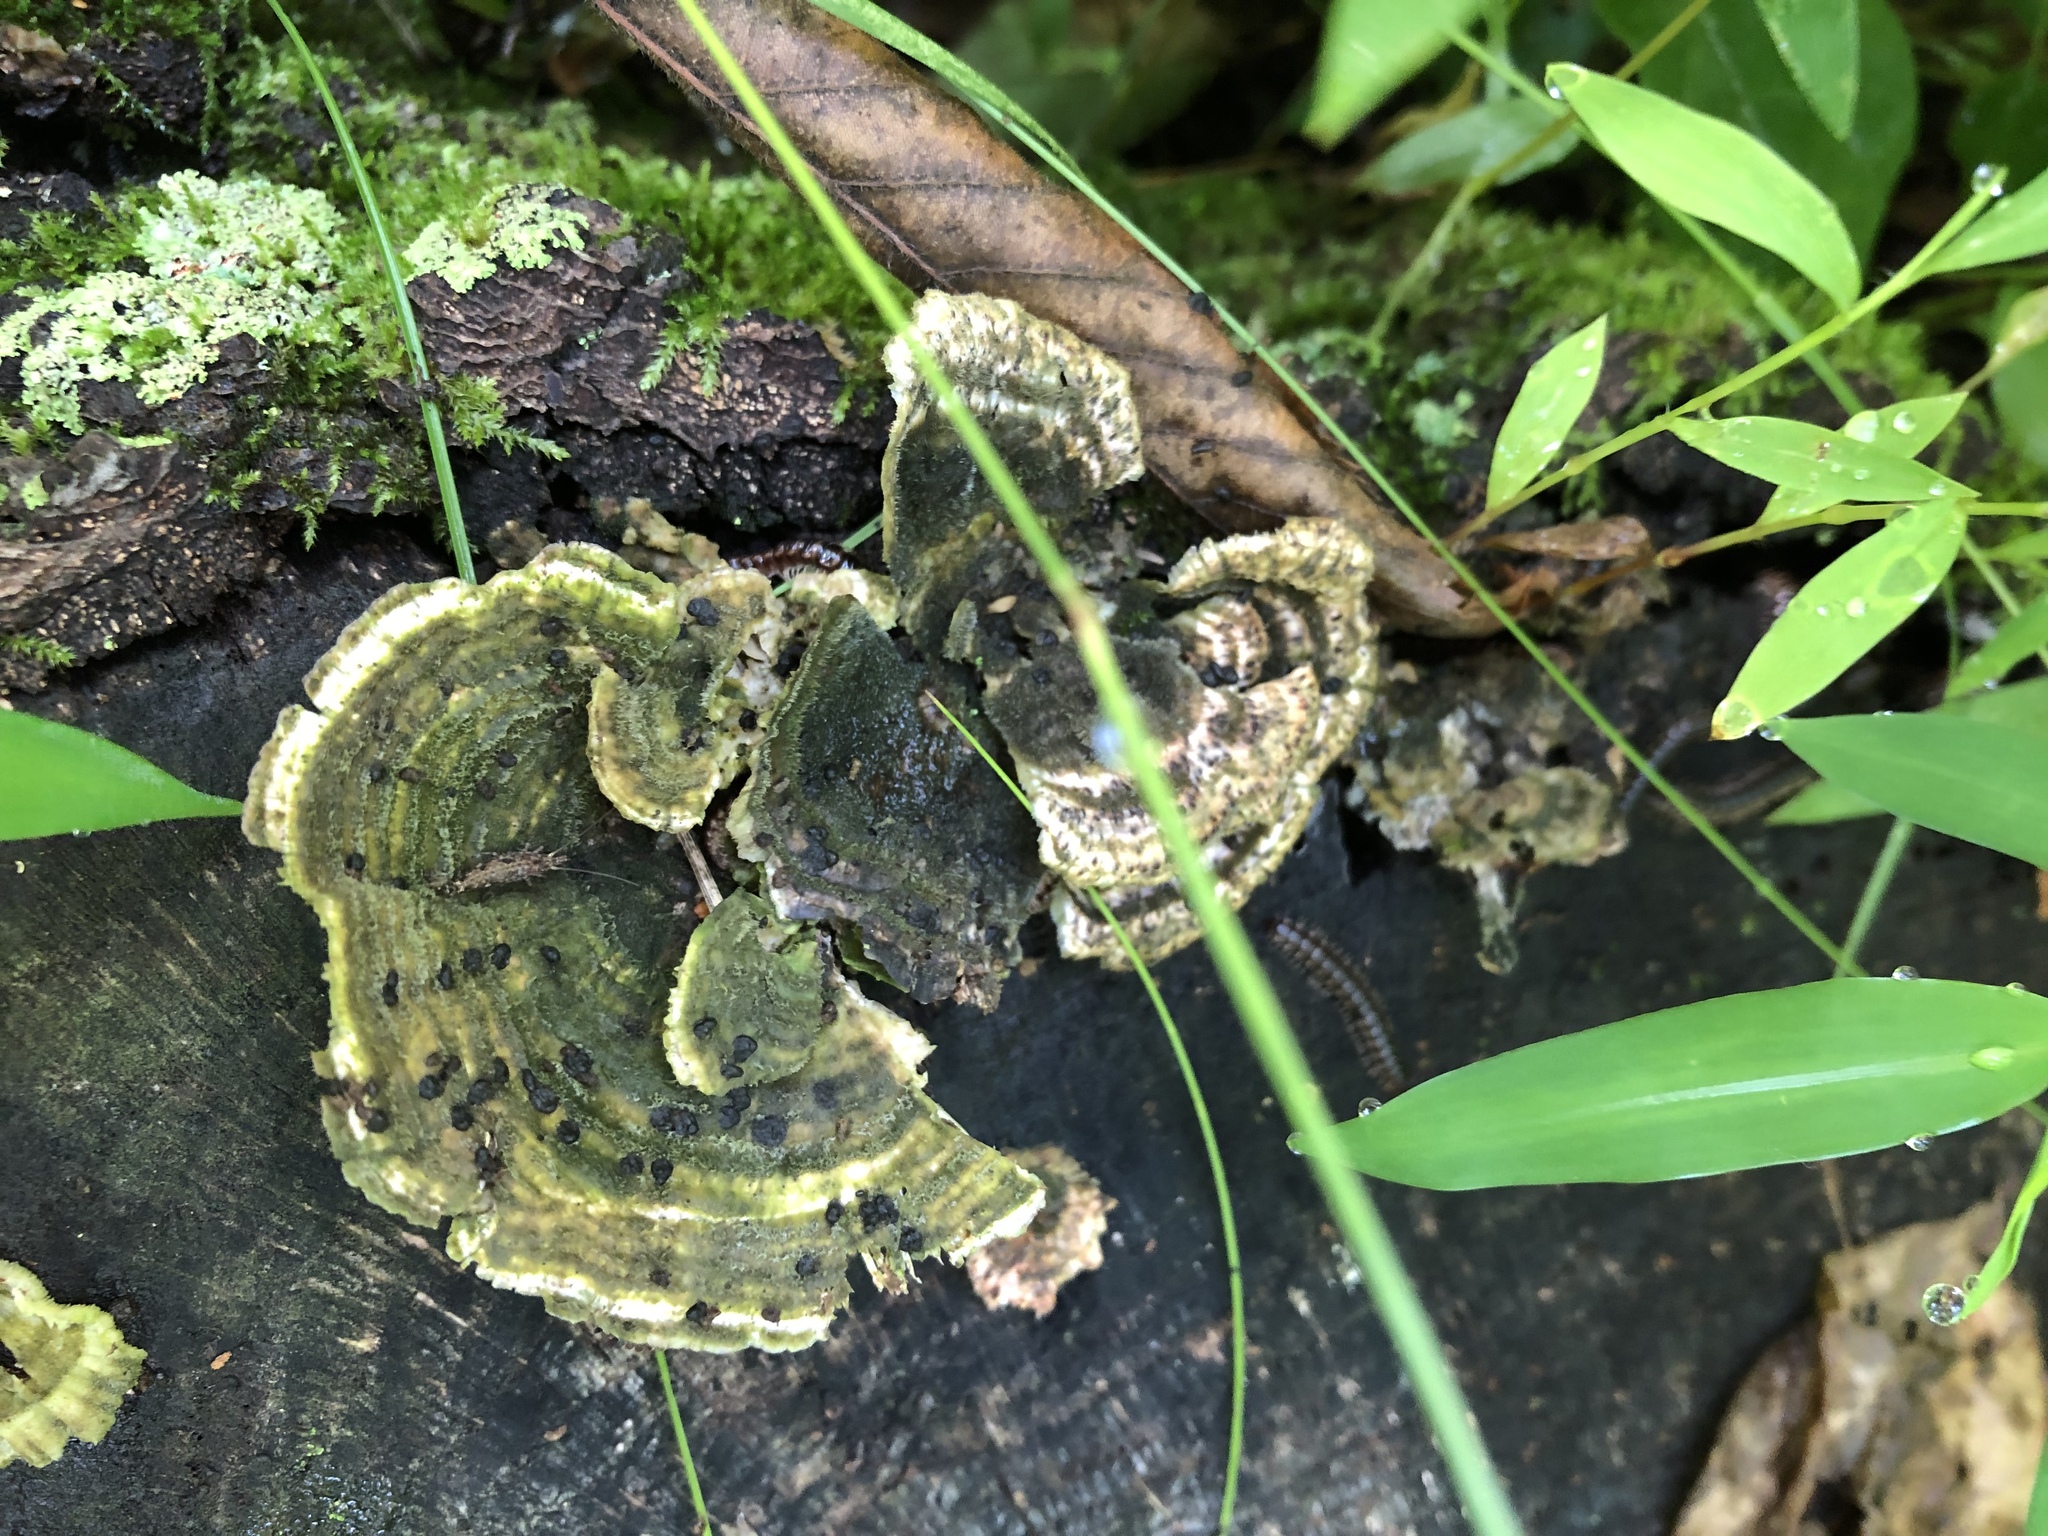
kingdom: Fungi
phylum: Basidiomycota
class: Agaricomycetes
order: Polyporales
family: Polyporaceae
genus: Lenzites
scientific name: Lenzites betulinus
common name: Birch mazegill
